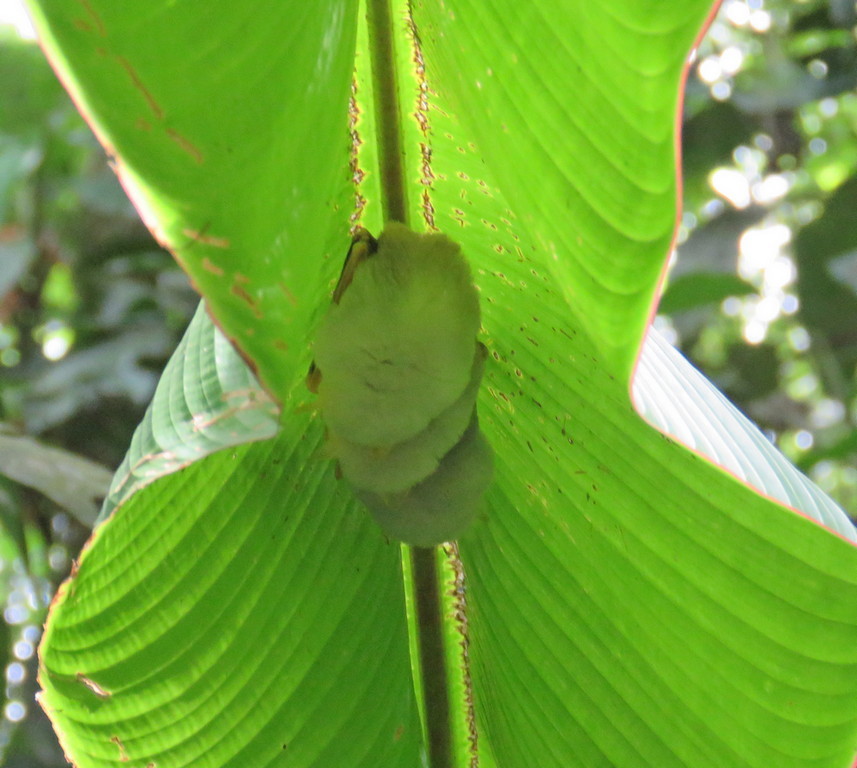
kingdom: Animalia
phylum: Chordata
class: Mammalia
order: Chiroptera
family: Phyllostomidae
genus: Ectophylla
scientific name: Ectophylla alba
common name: Honduran white bat
